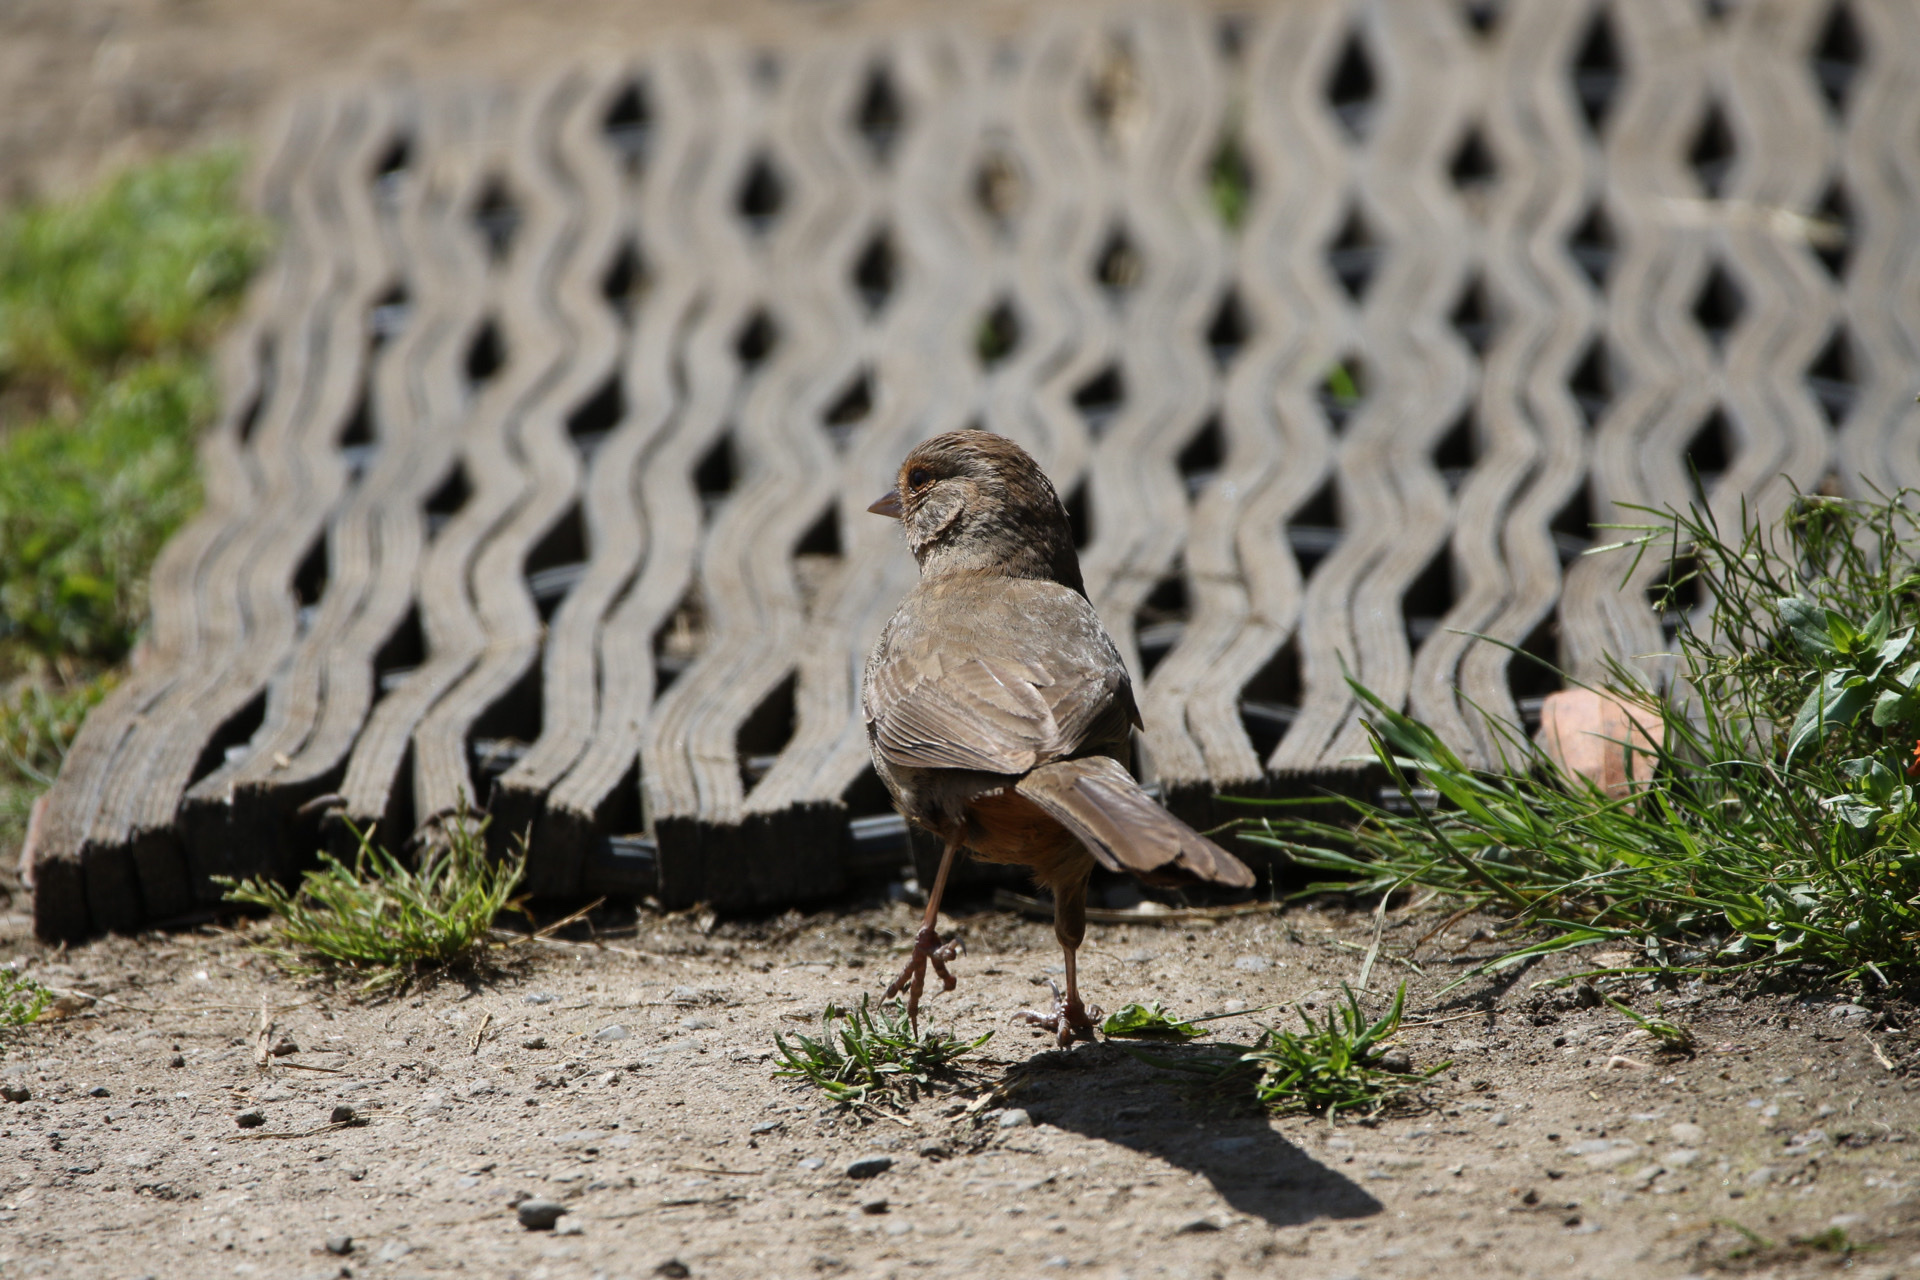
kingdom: Animalia
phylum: Chordata
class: Aves
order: Passeriformes
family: Passerellidae
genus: Melozone
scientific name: Melozone crissalis
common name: California towhee
